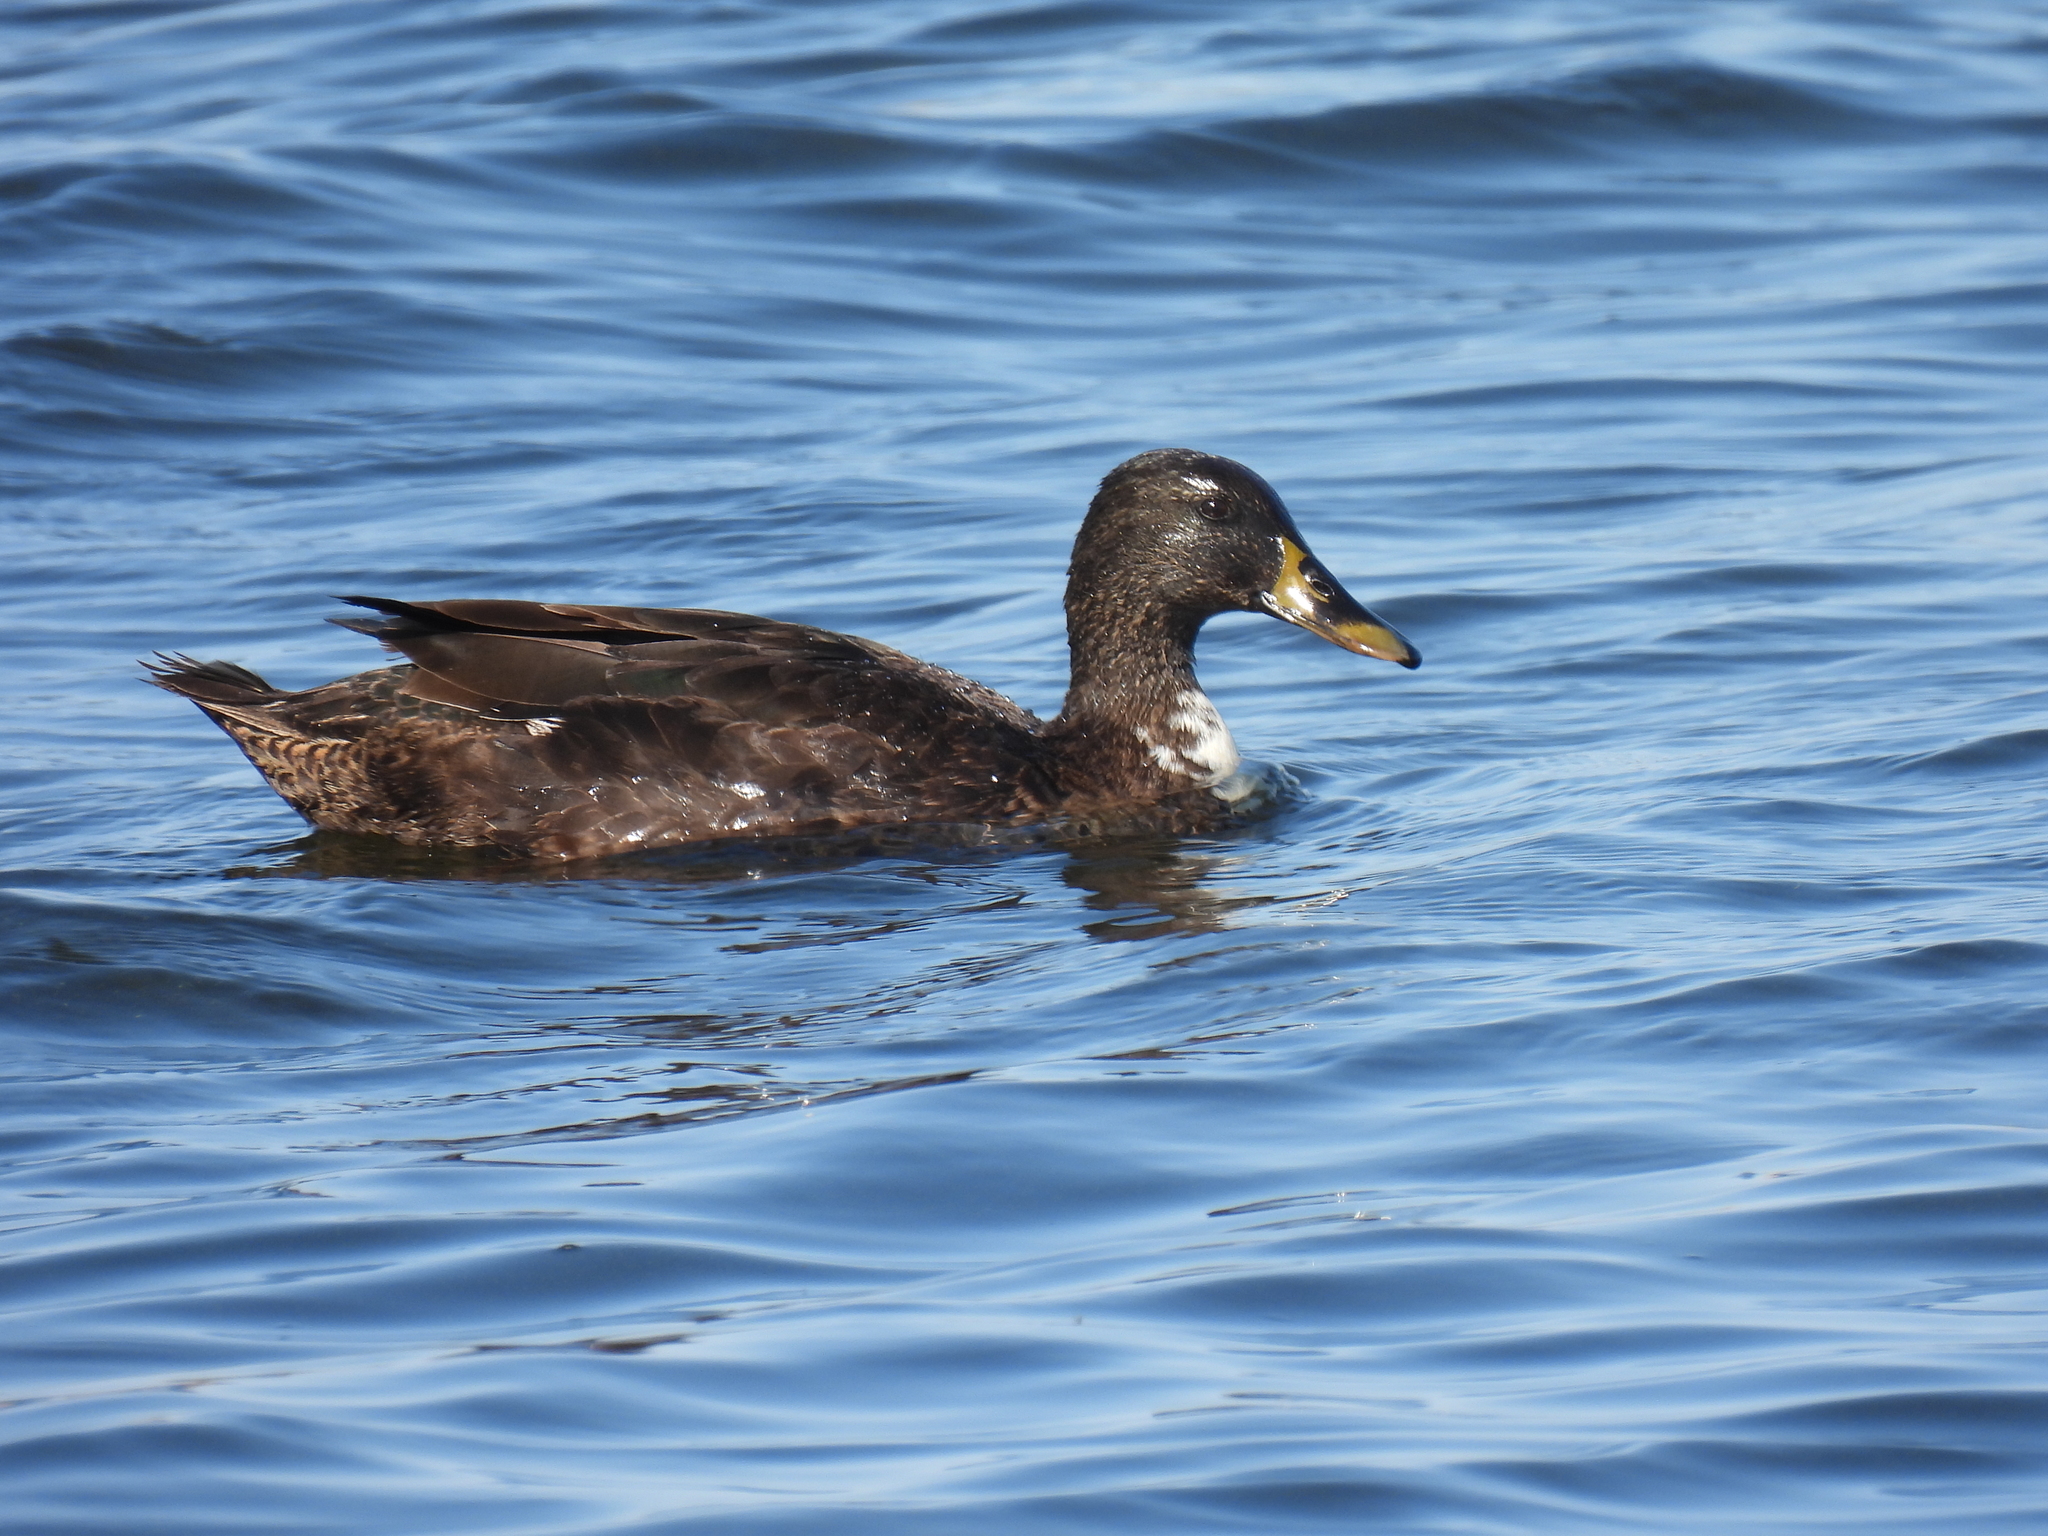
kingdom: Animalia
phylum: Chordata
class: Aves
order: Anseriformes
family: Anatidae
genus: Anas
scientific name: Anas undulata
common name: Yellow-billed duck
